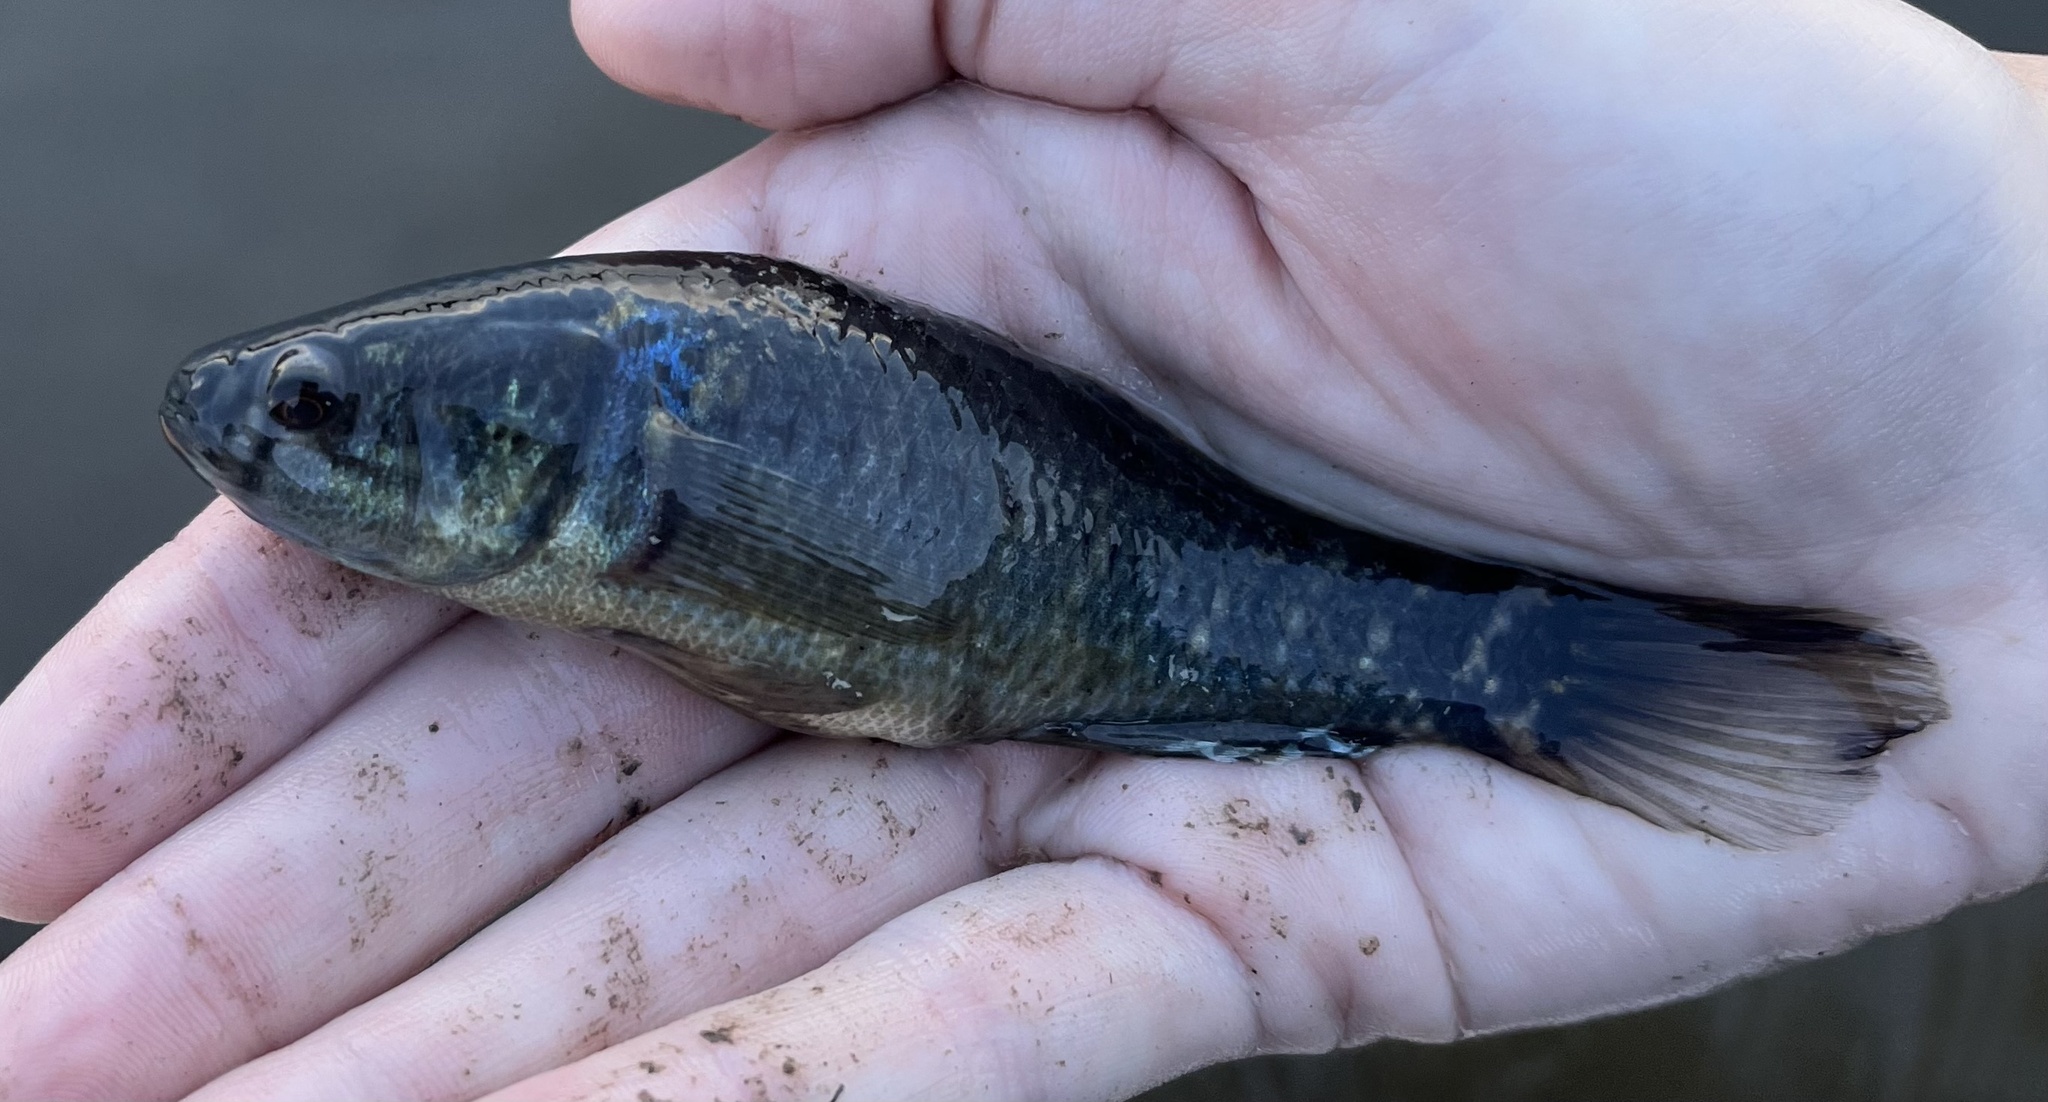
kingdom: Animalia
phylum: Chordata
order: Perciformes
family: Eleotridae
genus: Dormitator
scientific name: Dormitator maculatus
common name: Fat sleeper
